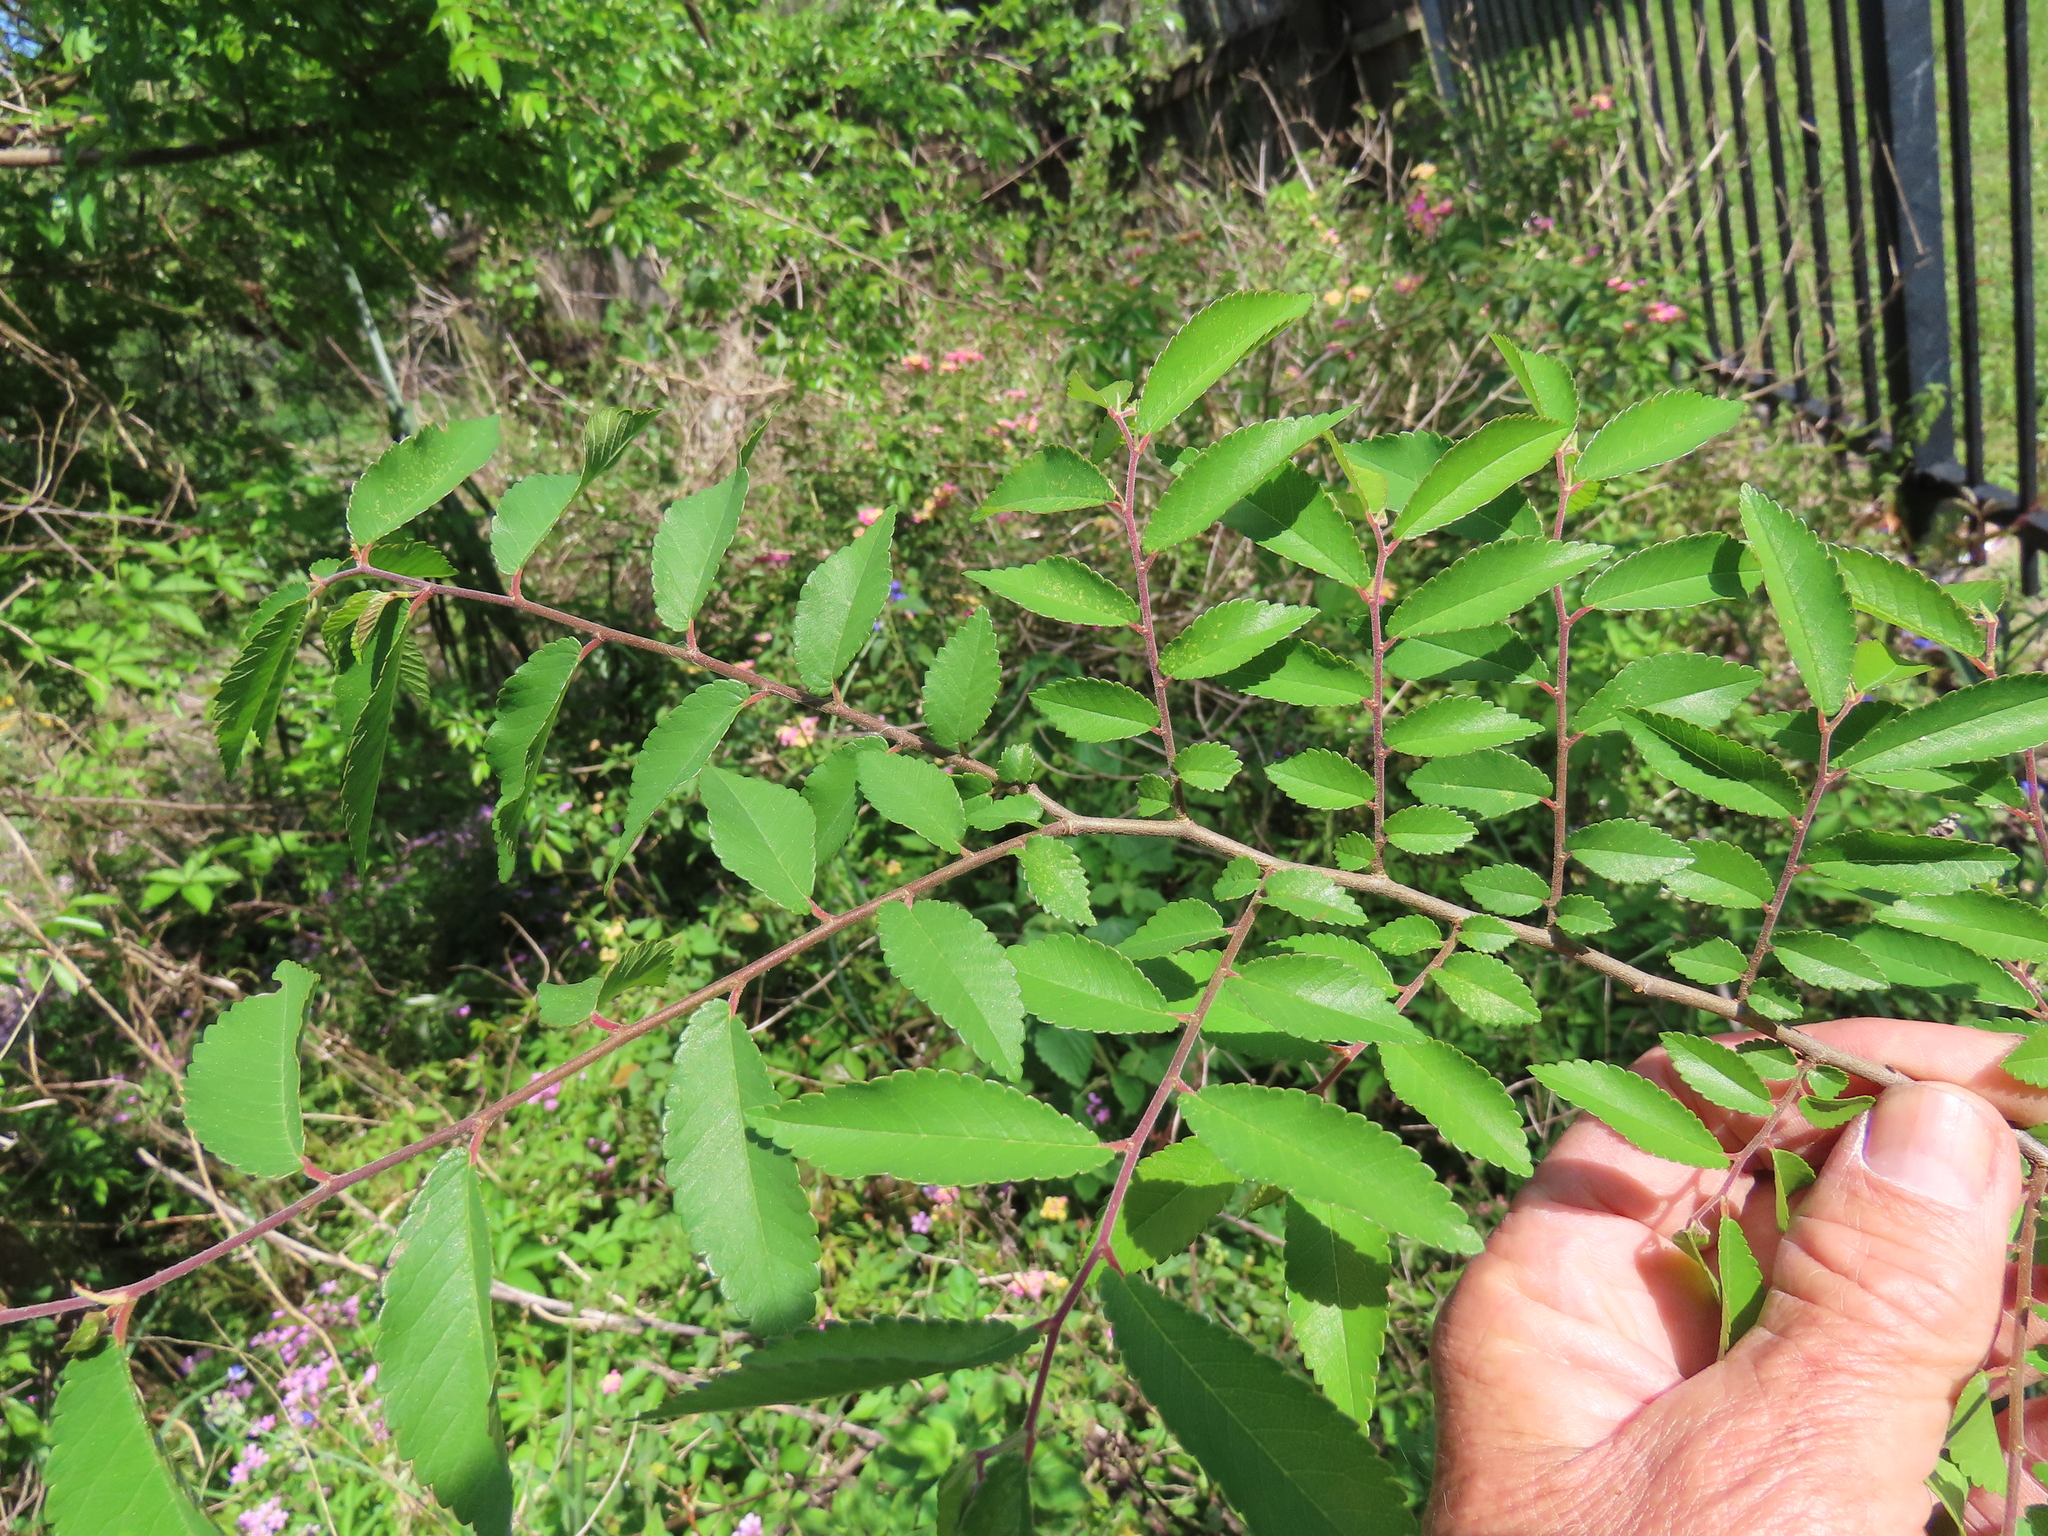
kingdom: Plantae
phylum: Tracheophyta
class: Magnoliopsida
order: Rosales
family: Ulmaceae
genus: Ulmus
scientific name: Ulmus parvifolia
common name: Chinese elm
